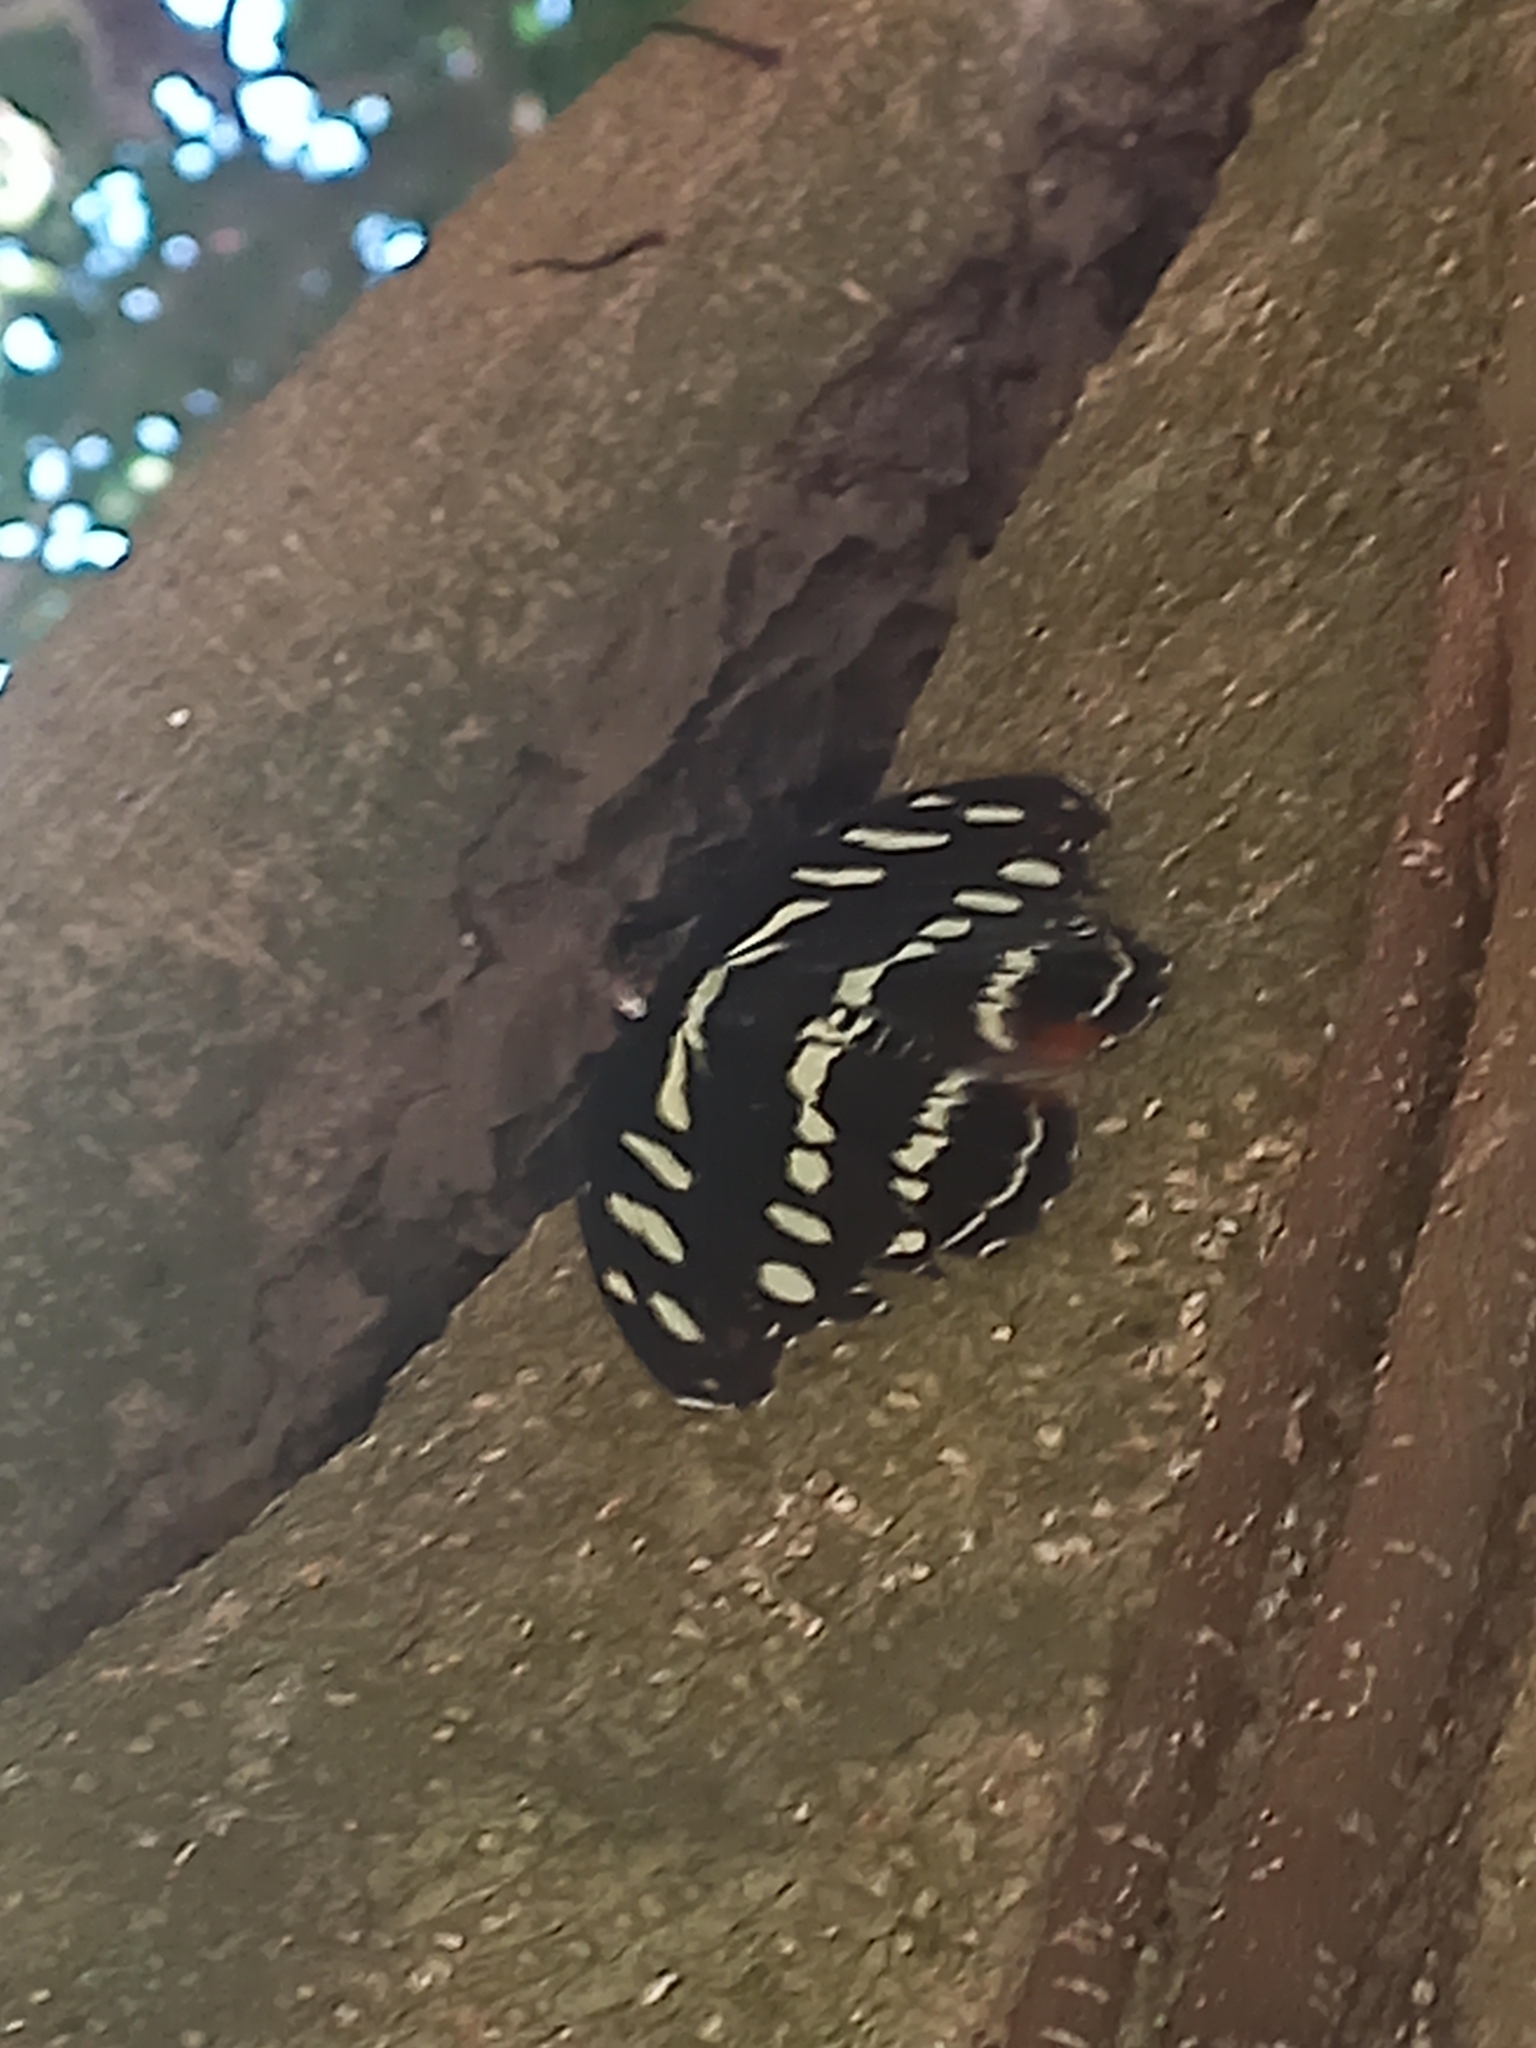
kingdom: Animalia
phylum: Arthropoda
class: Insecta
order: Lepidoptera
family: Nymphalidae
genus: Catonephele
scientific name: Catonephele acontius
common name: Unspotted firewing
